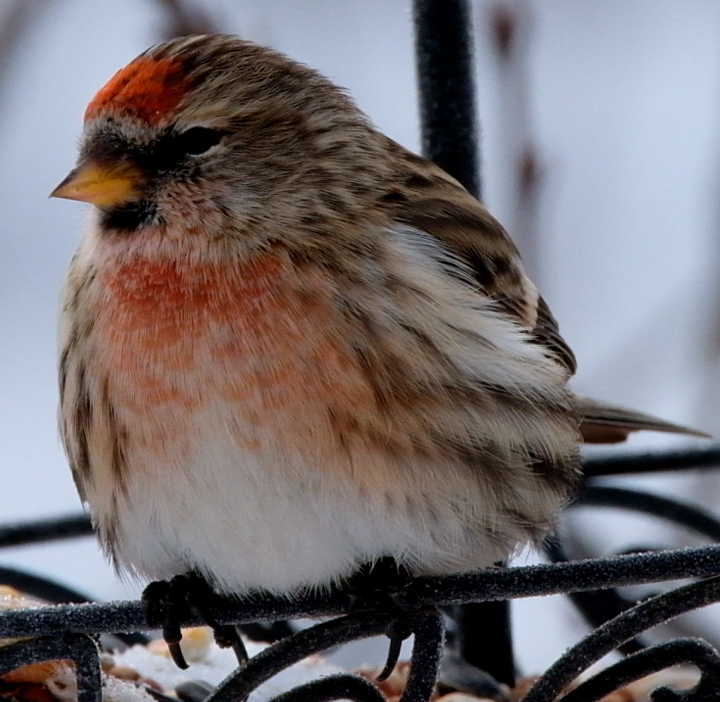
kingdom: Animalia
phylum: Chordata
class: Aves
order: Passeriformes
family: Fringillidae
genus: Acanthis
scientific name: Acanthis flammea
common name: Common redpoll
